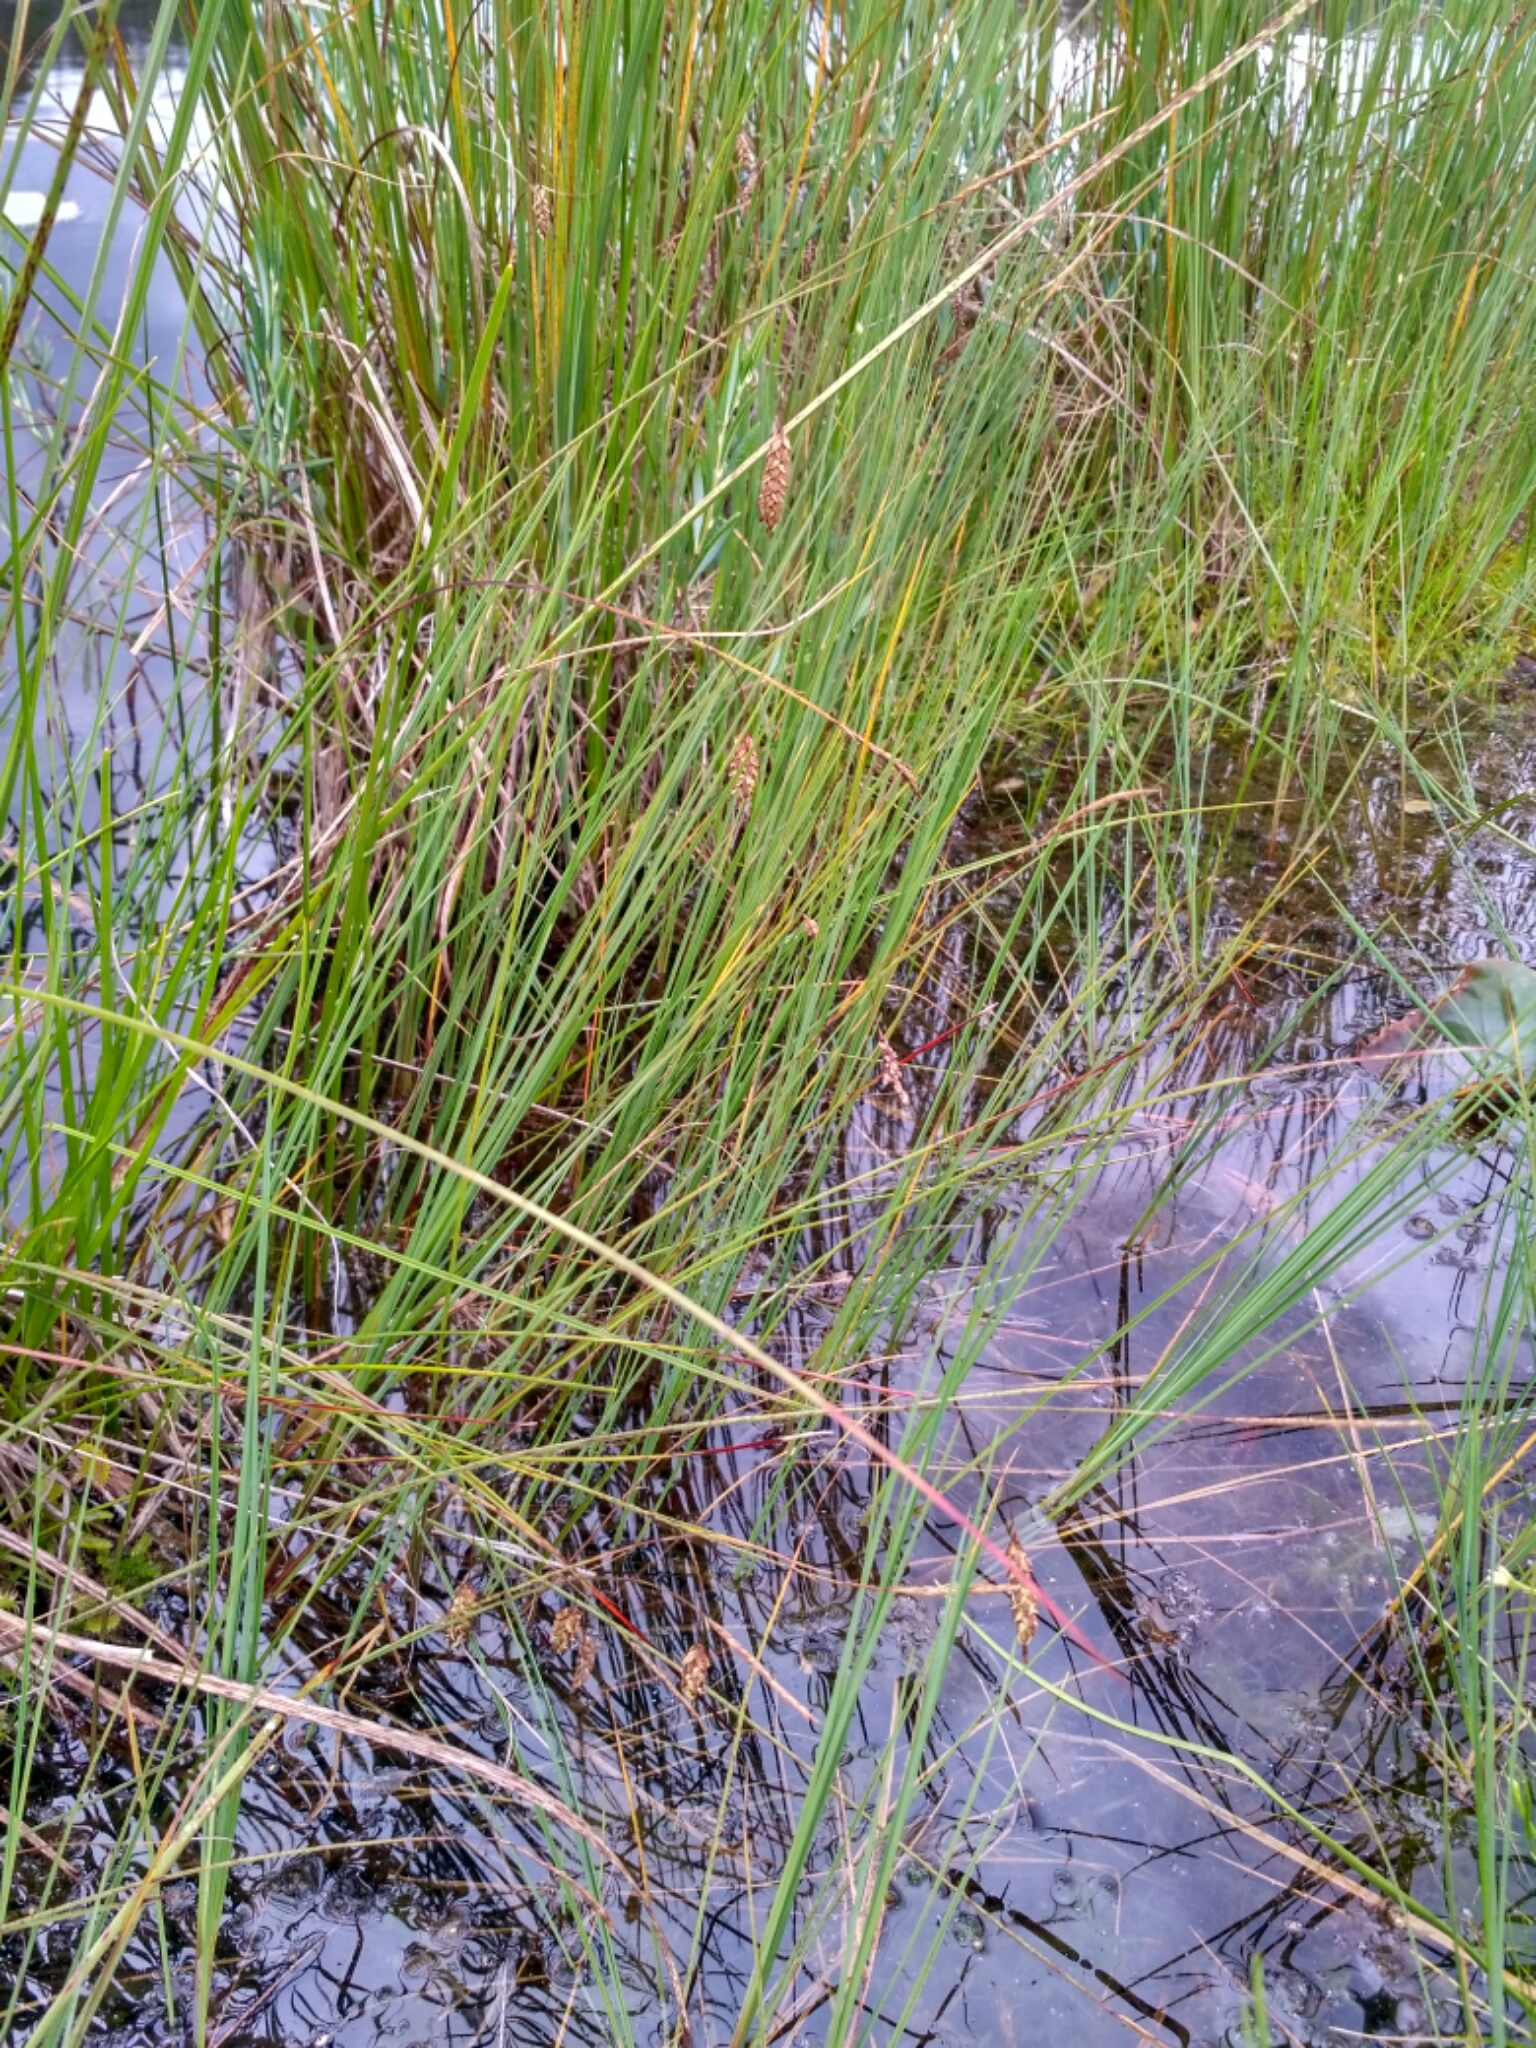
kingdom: Plantae
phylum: Tracheophyta
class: Liliopsida
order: Poales
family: Cyperaceae
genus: Carex
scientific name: Carex limosa
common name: Bog sedge
